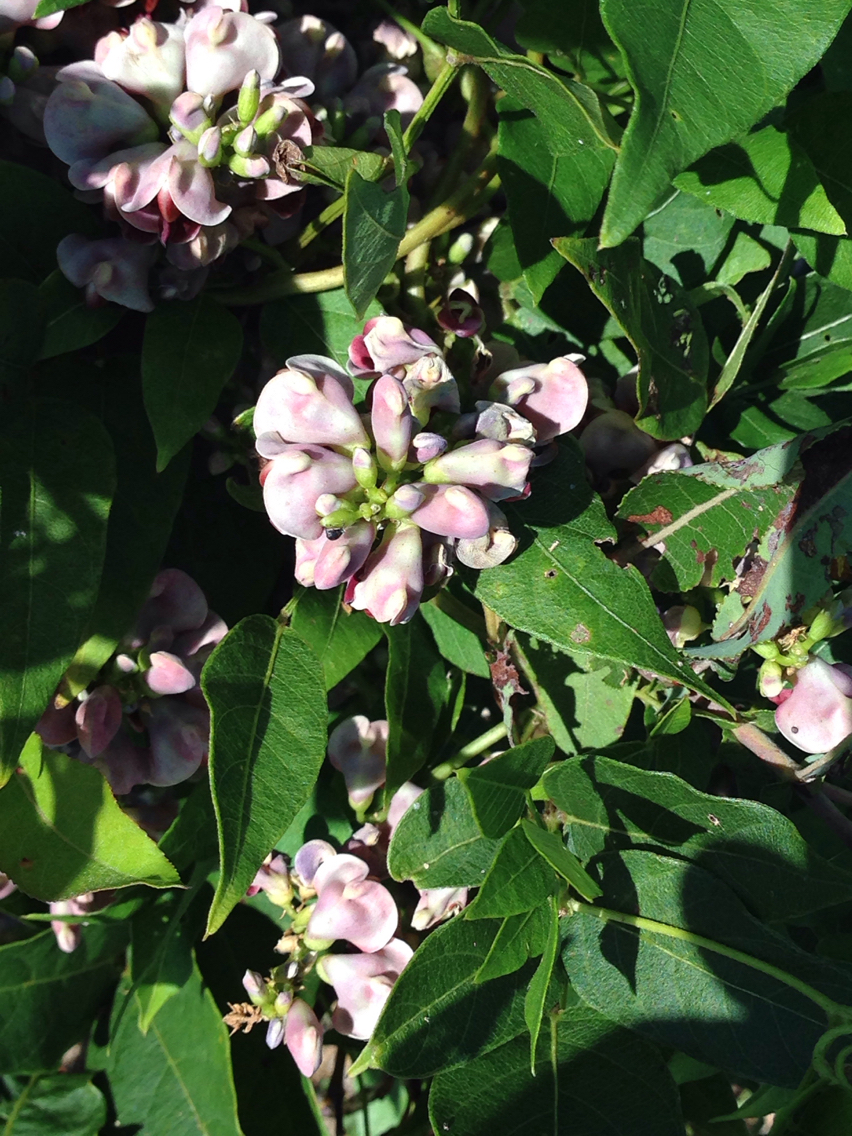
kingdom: Plantae
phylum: Tracheophyta
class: Magnoliopsida
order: Fabales
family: Fabaceae
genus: Apios
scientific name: Apios americana
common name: American potato-bean
